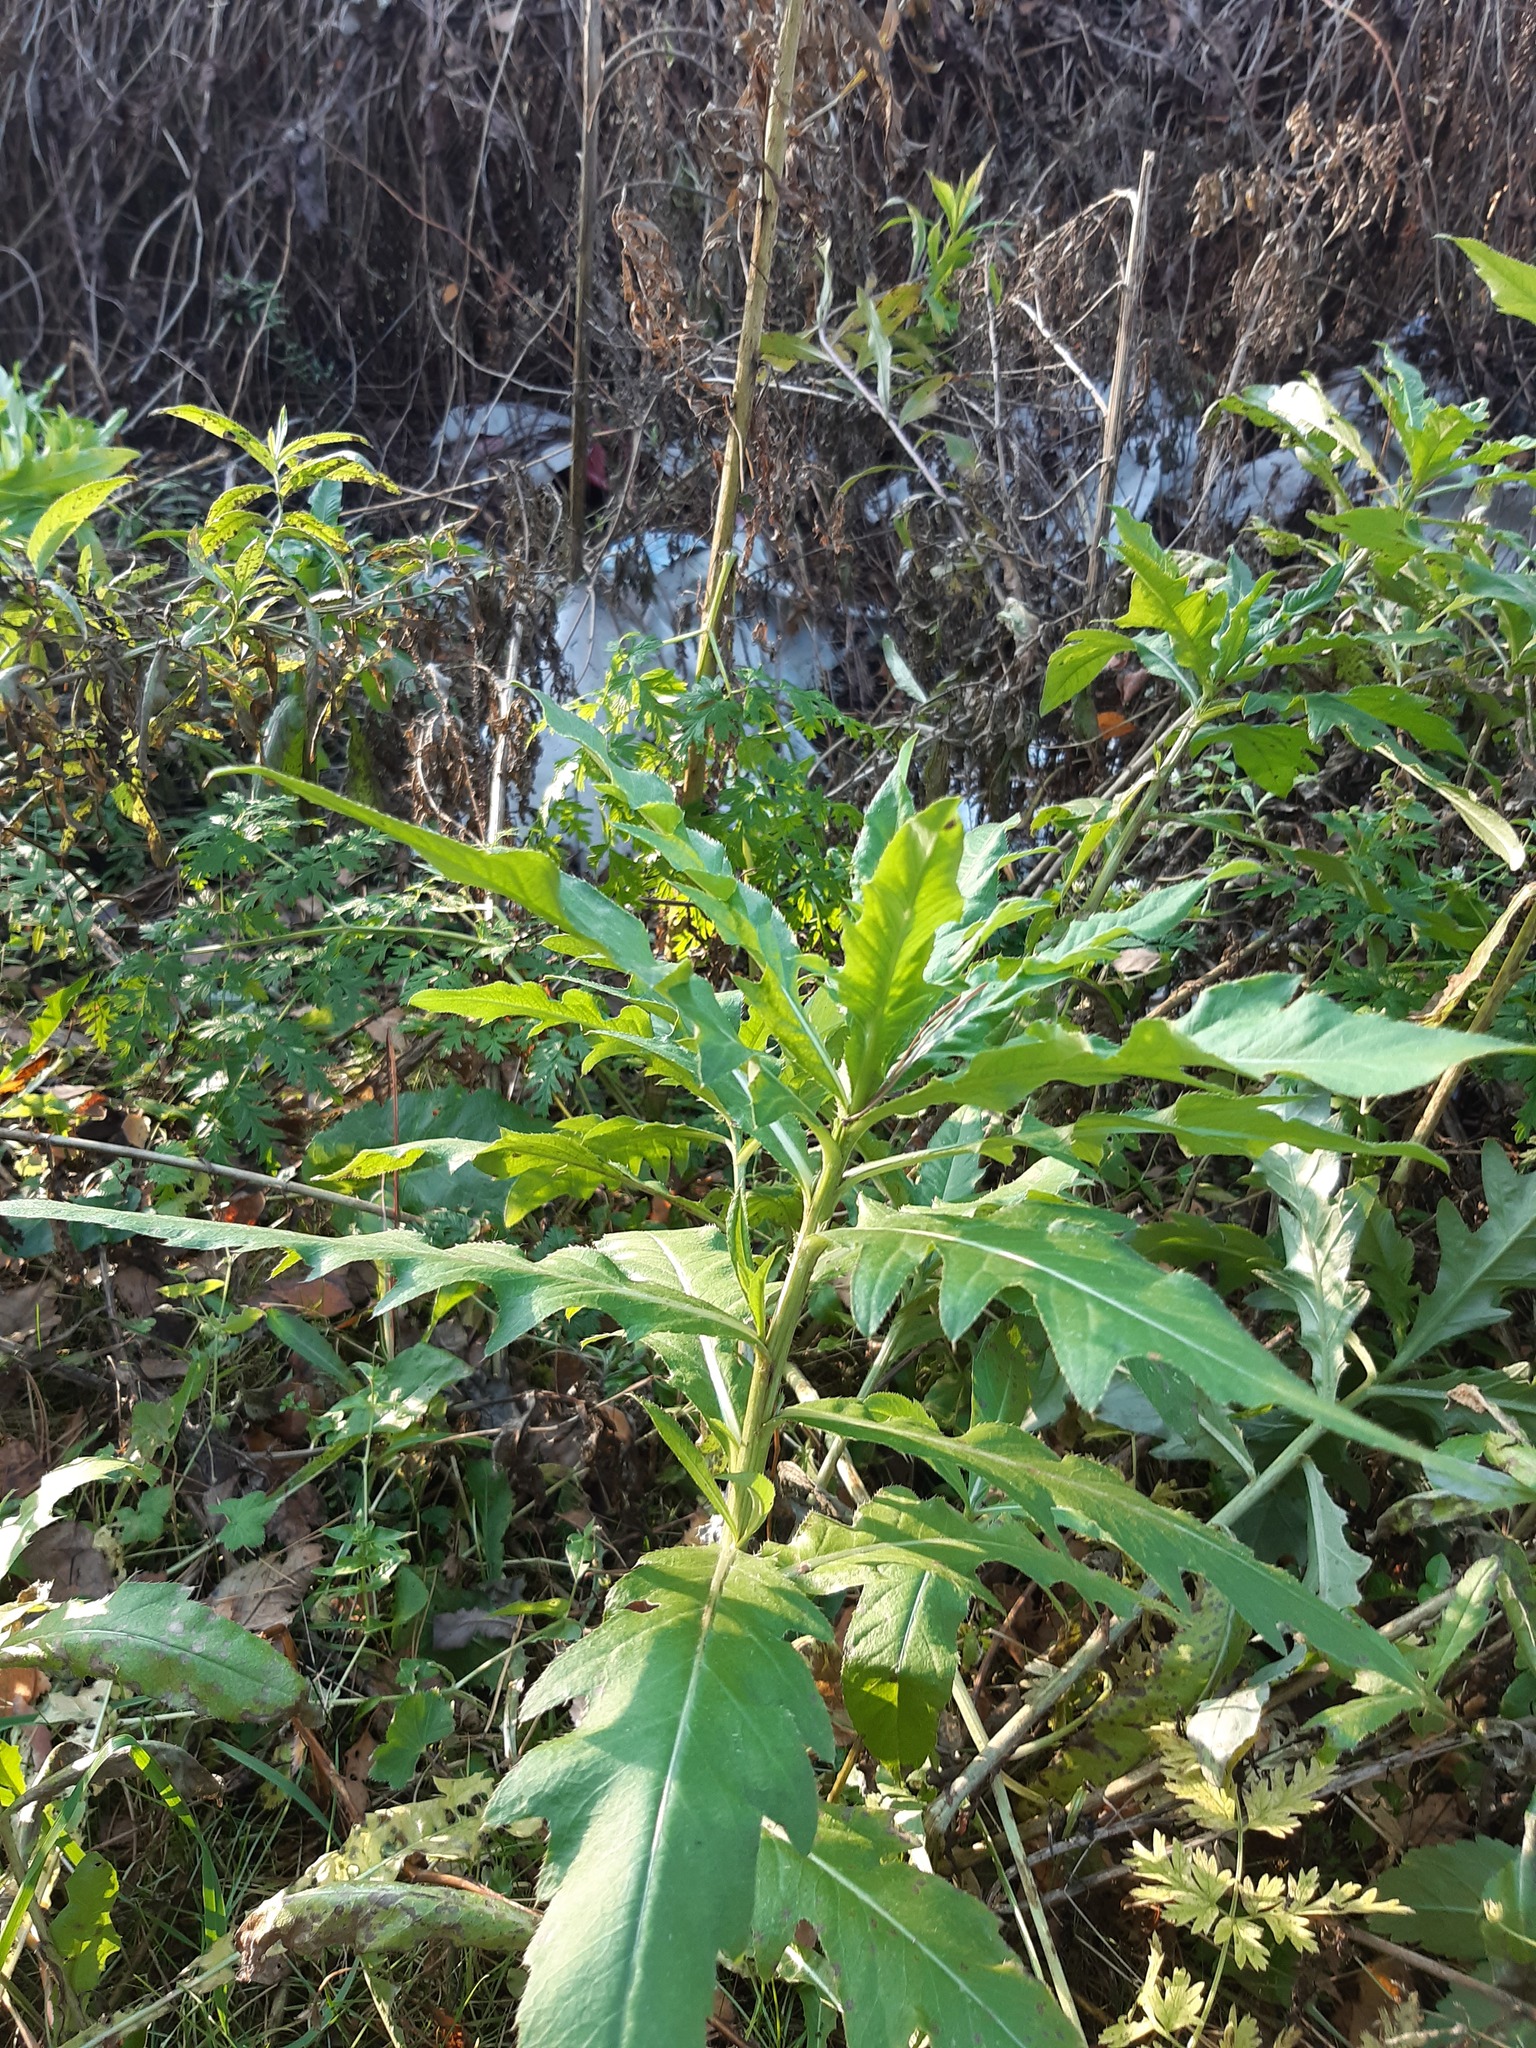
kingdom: Plantae
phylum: Tracheophyta
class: Magnoliopsida
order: Asterales
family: Asteraceae
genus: Cirsium
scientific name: Cirsium arvense
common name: Creeping thistle
